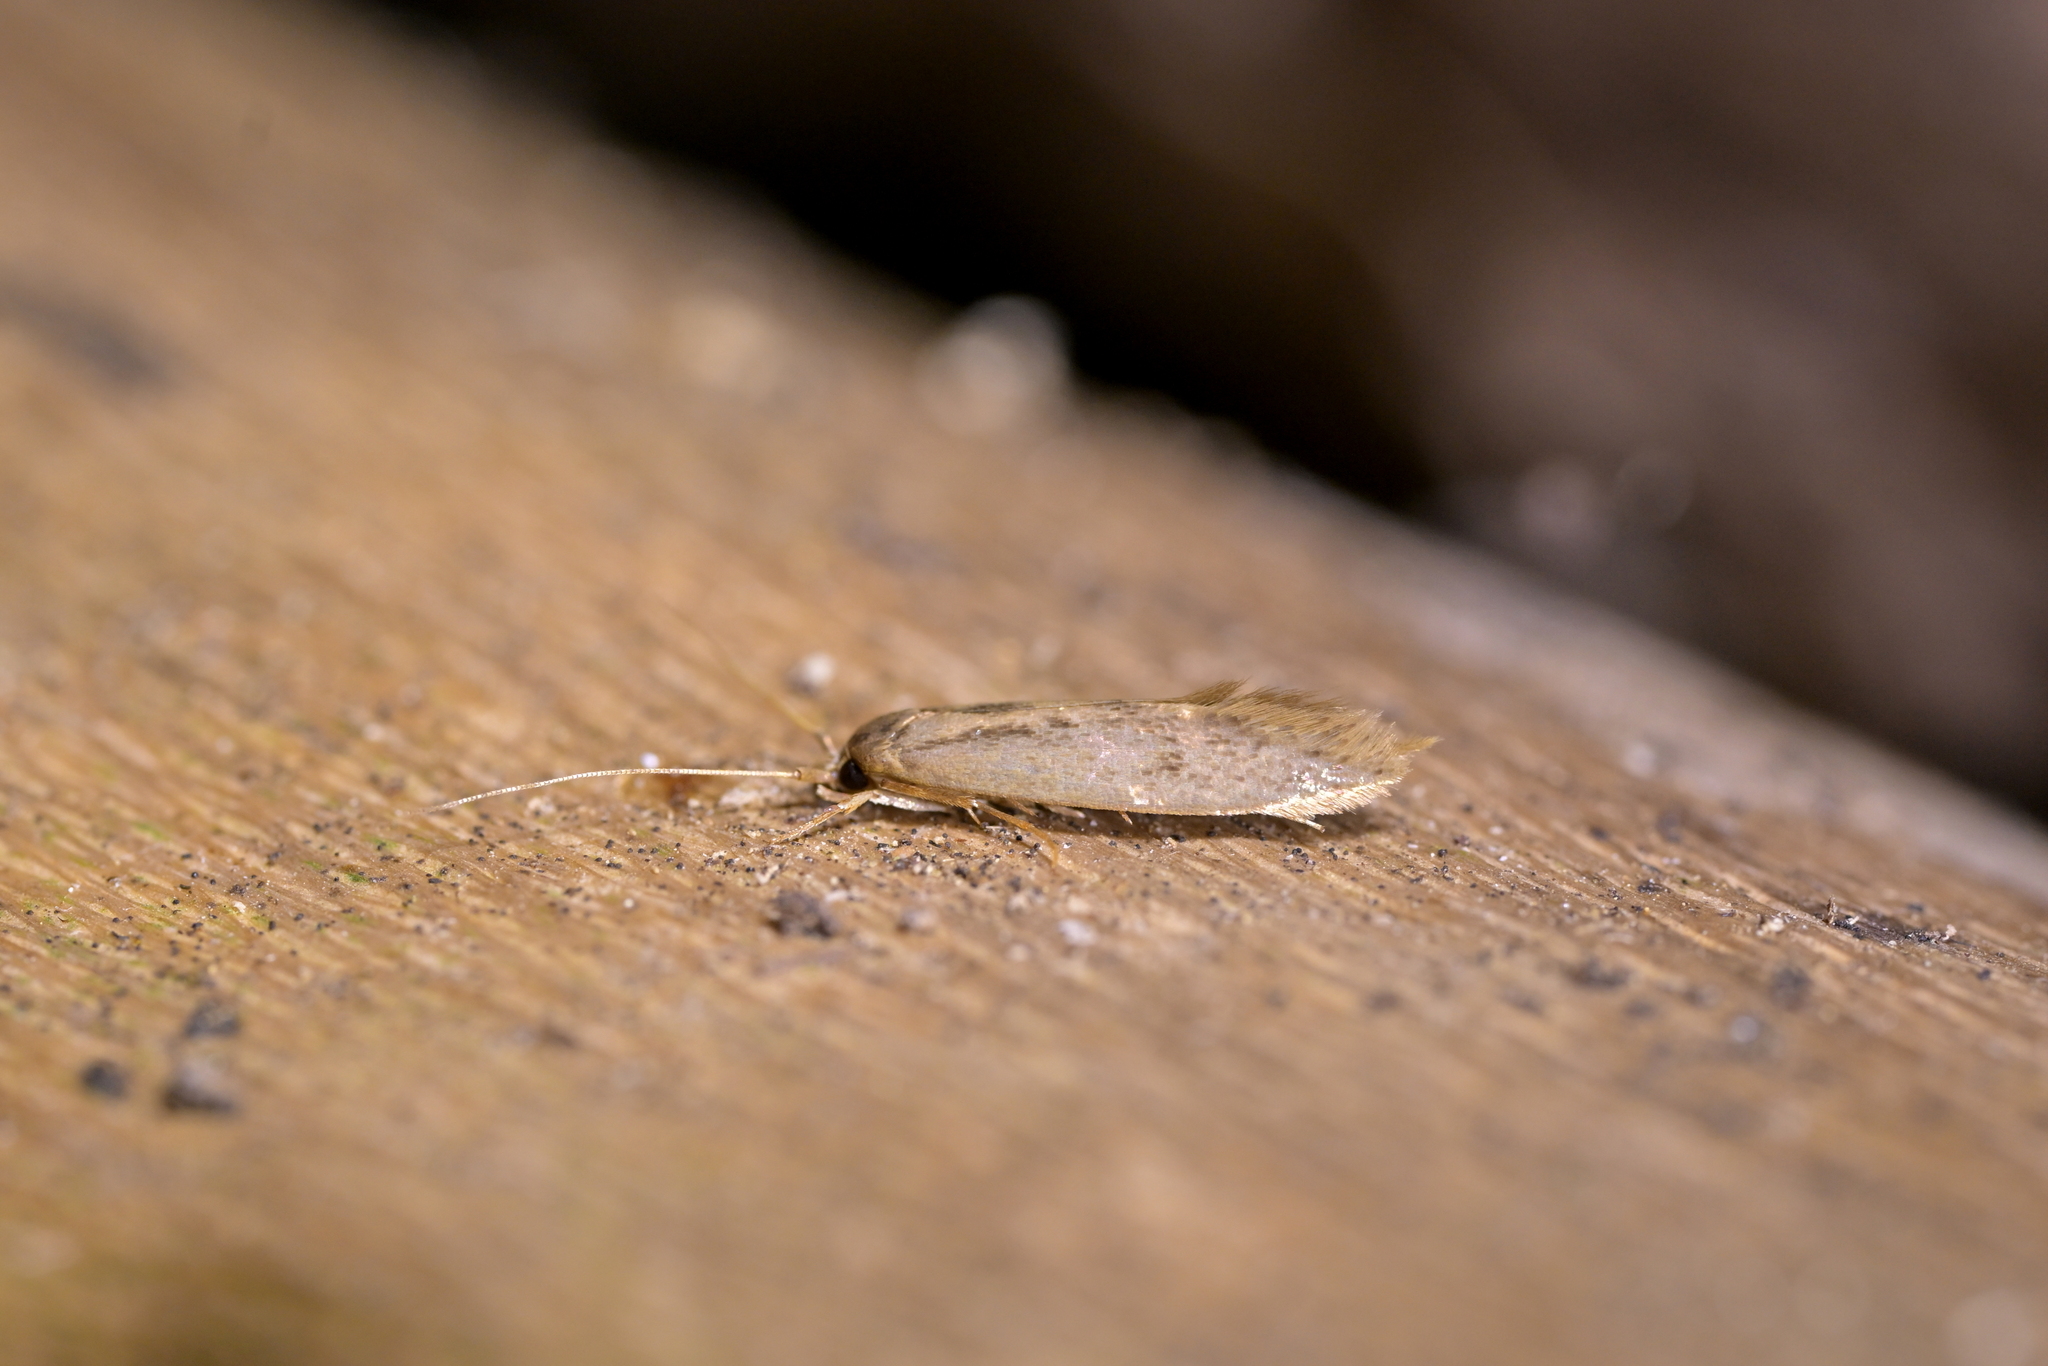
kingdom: Animalia
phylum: Arthropoda
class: Insecta
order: Lepidoptera
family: Tineidae
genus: Opogona
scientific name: Opogona omoscopa
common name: Moth
